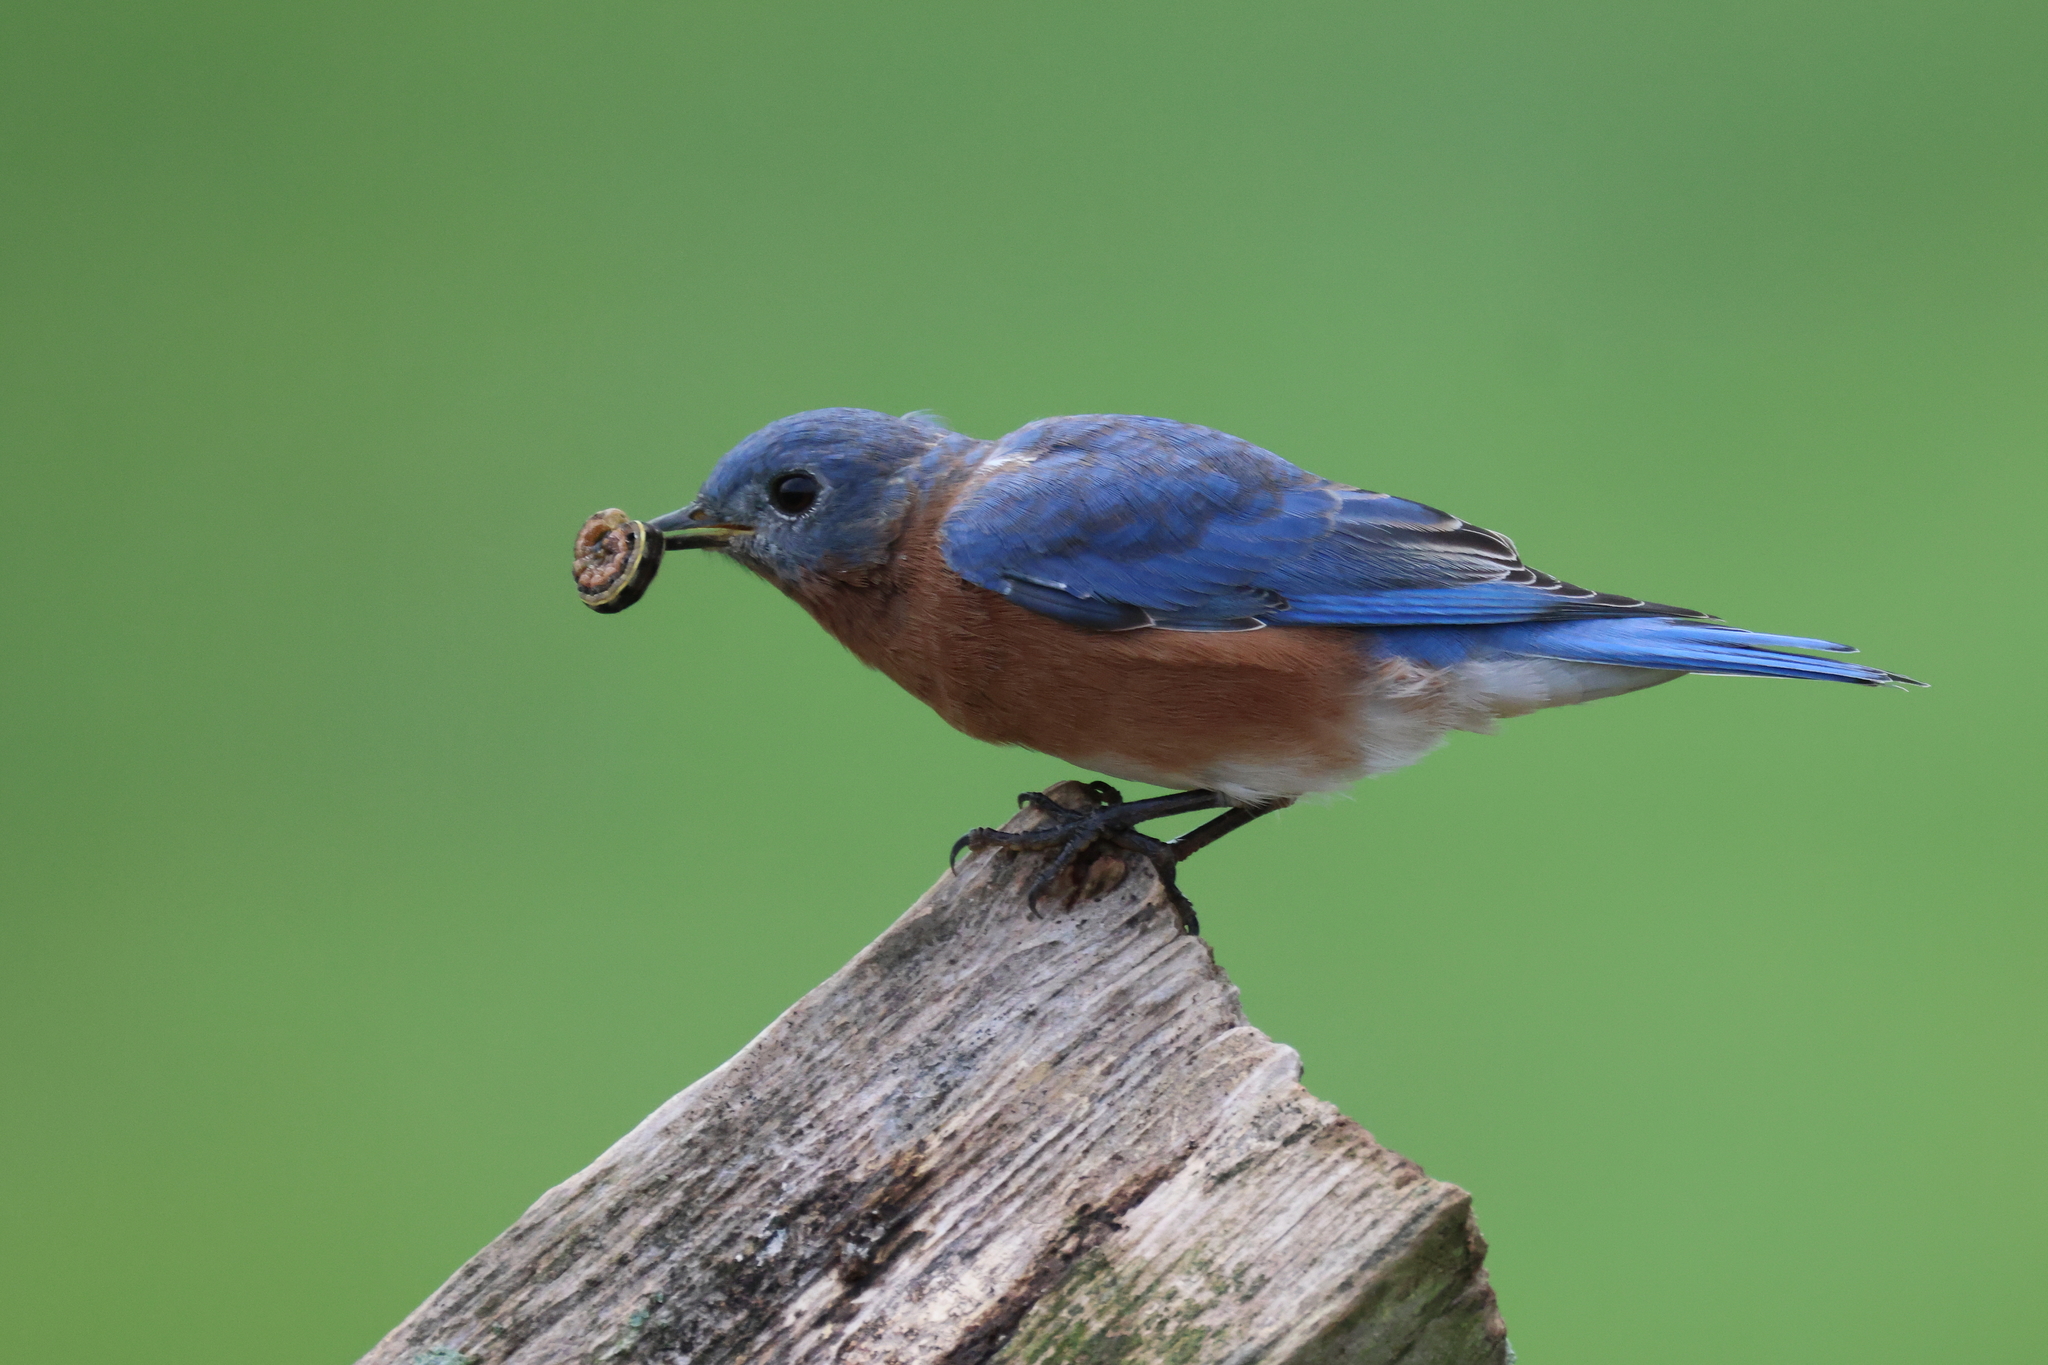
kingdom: Animalia
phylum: Chordata
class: Aves
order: Passeriformes
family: Turdidae
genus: Sialia
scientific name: Sialia sialis
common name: Eastern bluebird
